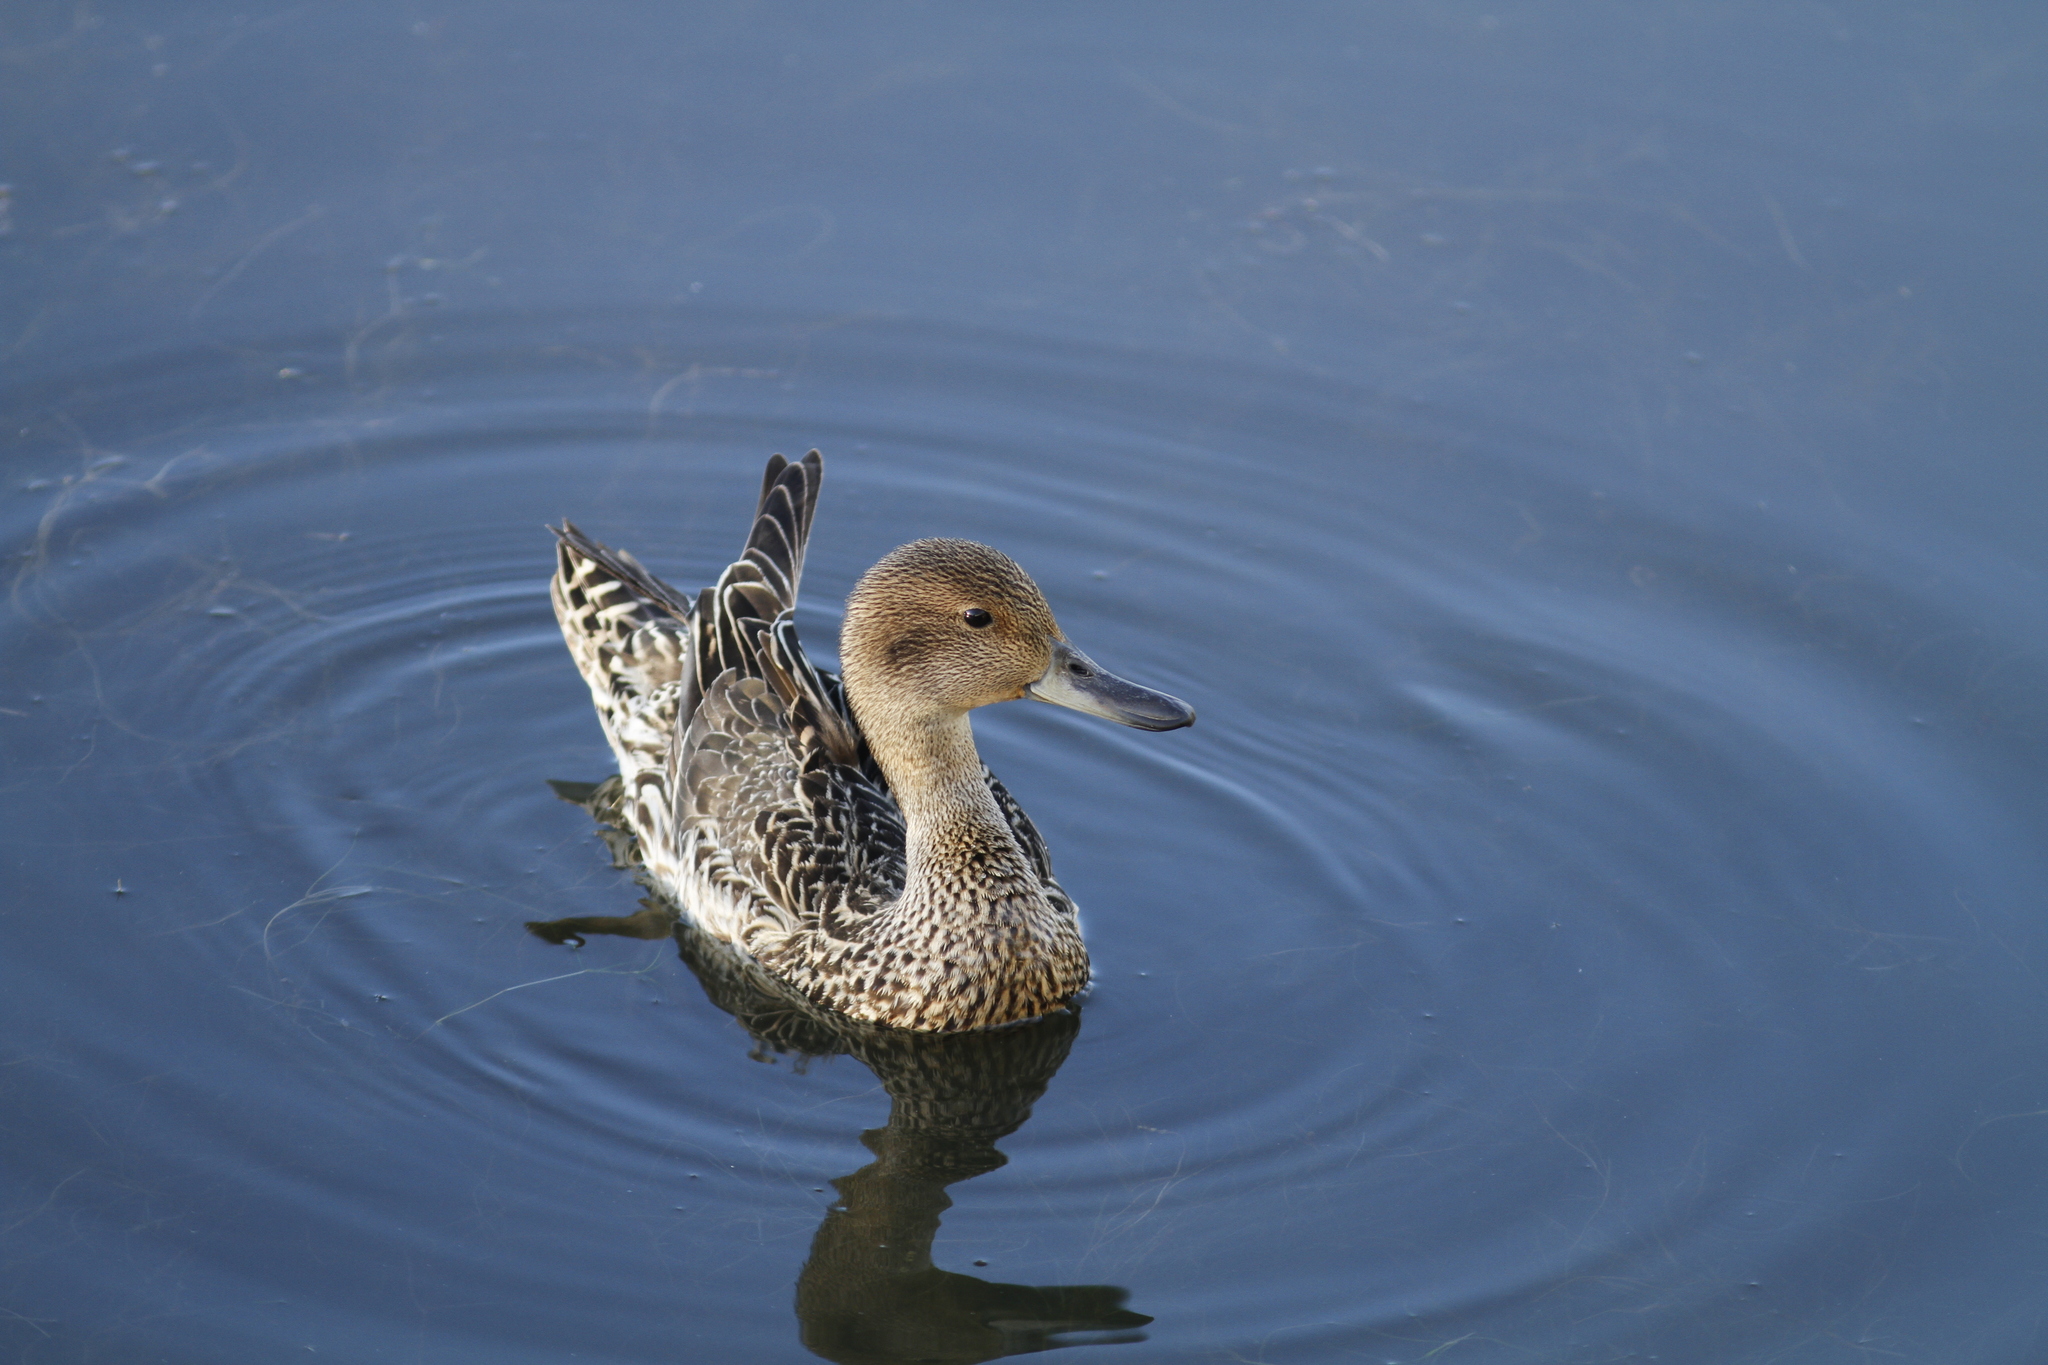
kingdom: Animalia
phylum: Chordata
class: Aves
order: Anseriformes
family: Anatidae
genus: Anas
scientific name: Anas acuta
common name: Northern pintail
